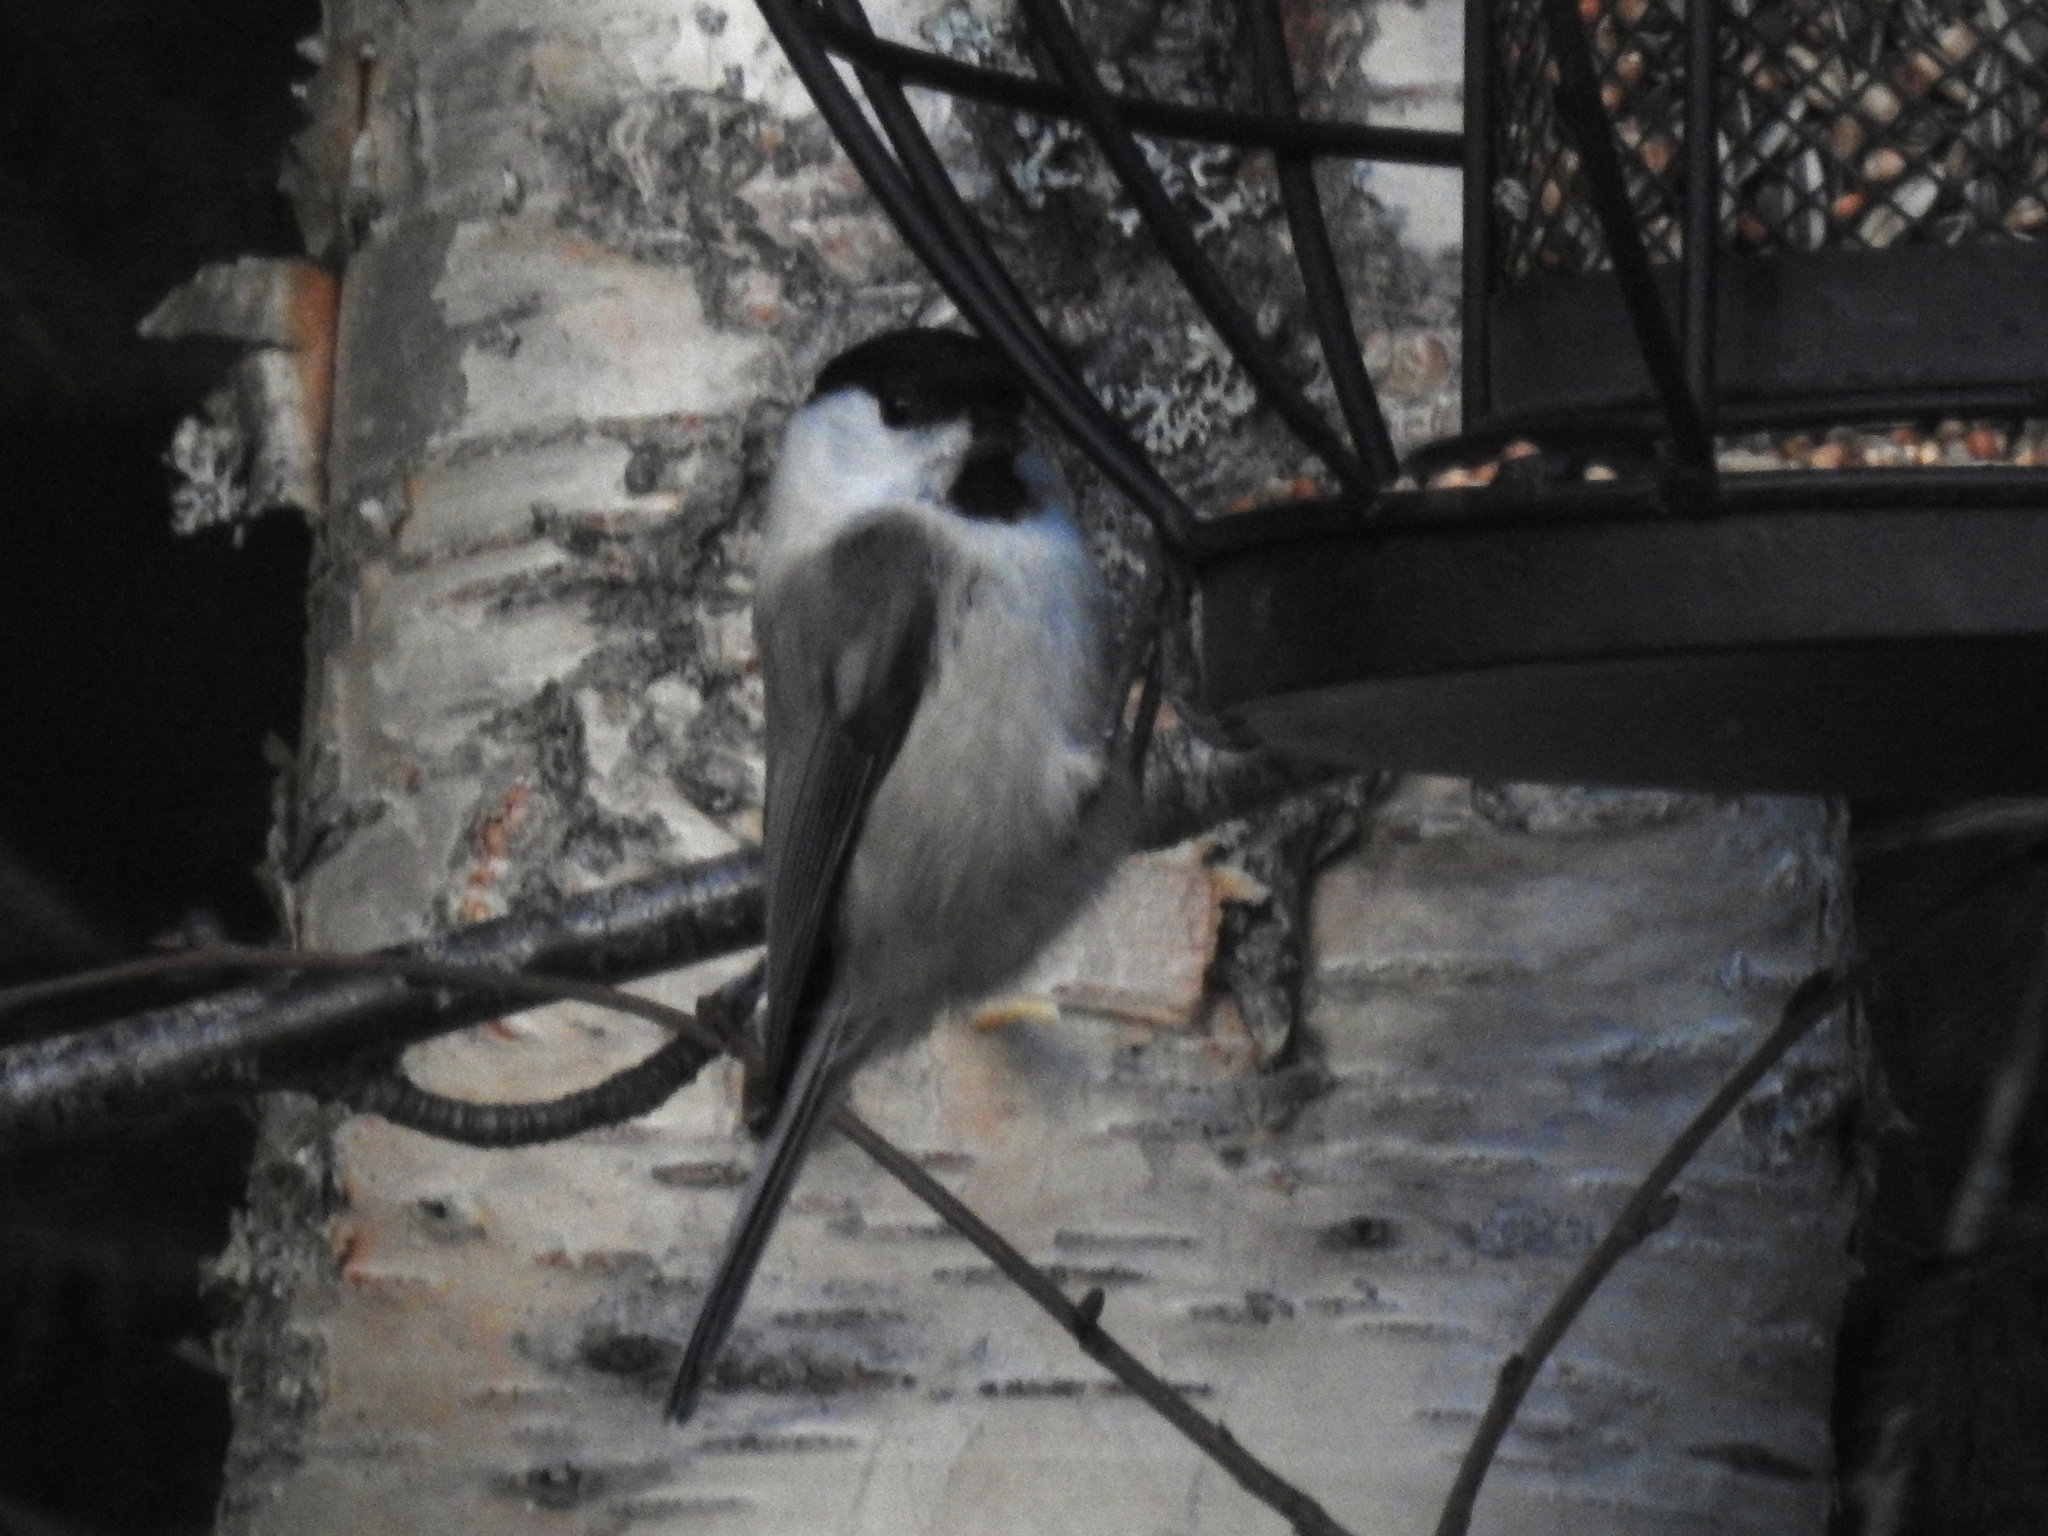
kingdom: Animalia
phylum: Chordata
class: Aves
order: Passeriformes
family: Paridae
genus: Poecile
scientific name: Poecile montanus
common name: Willow tit
